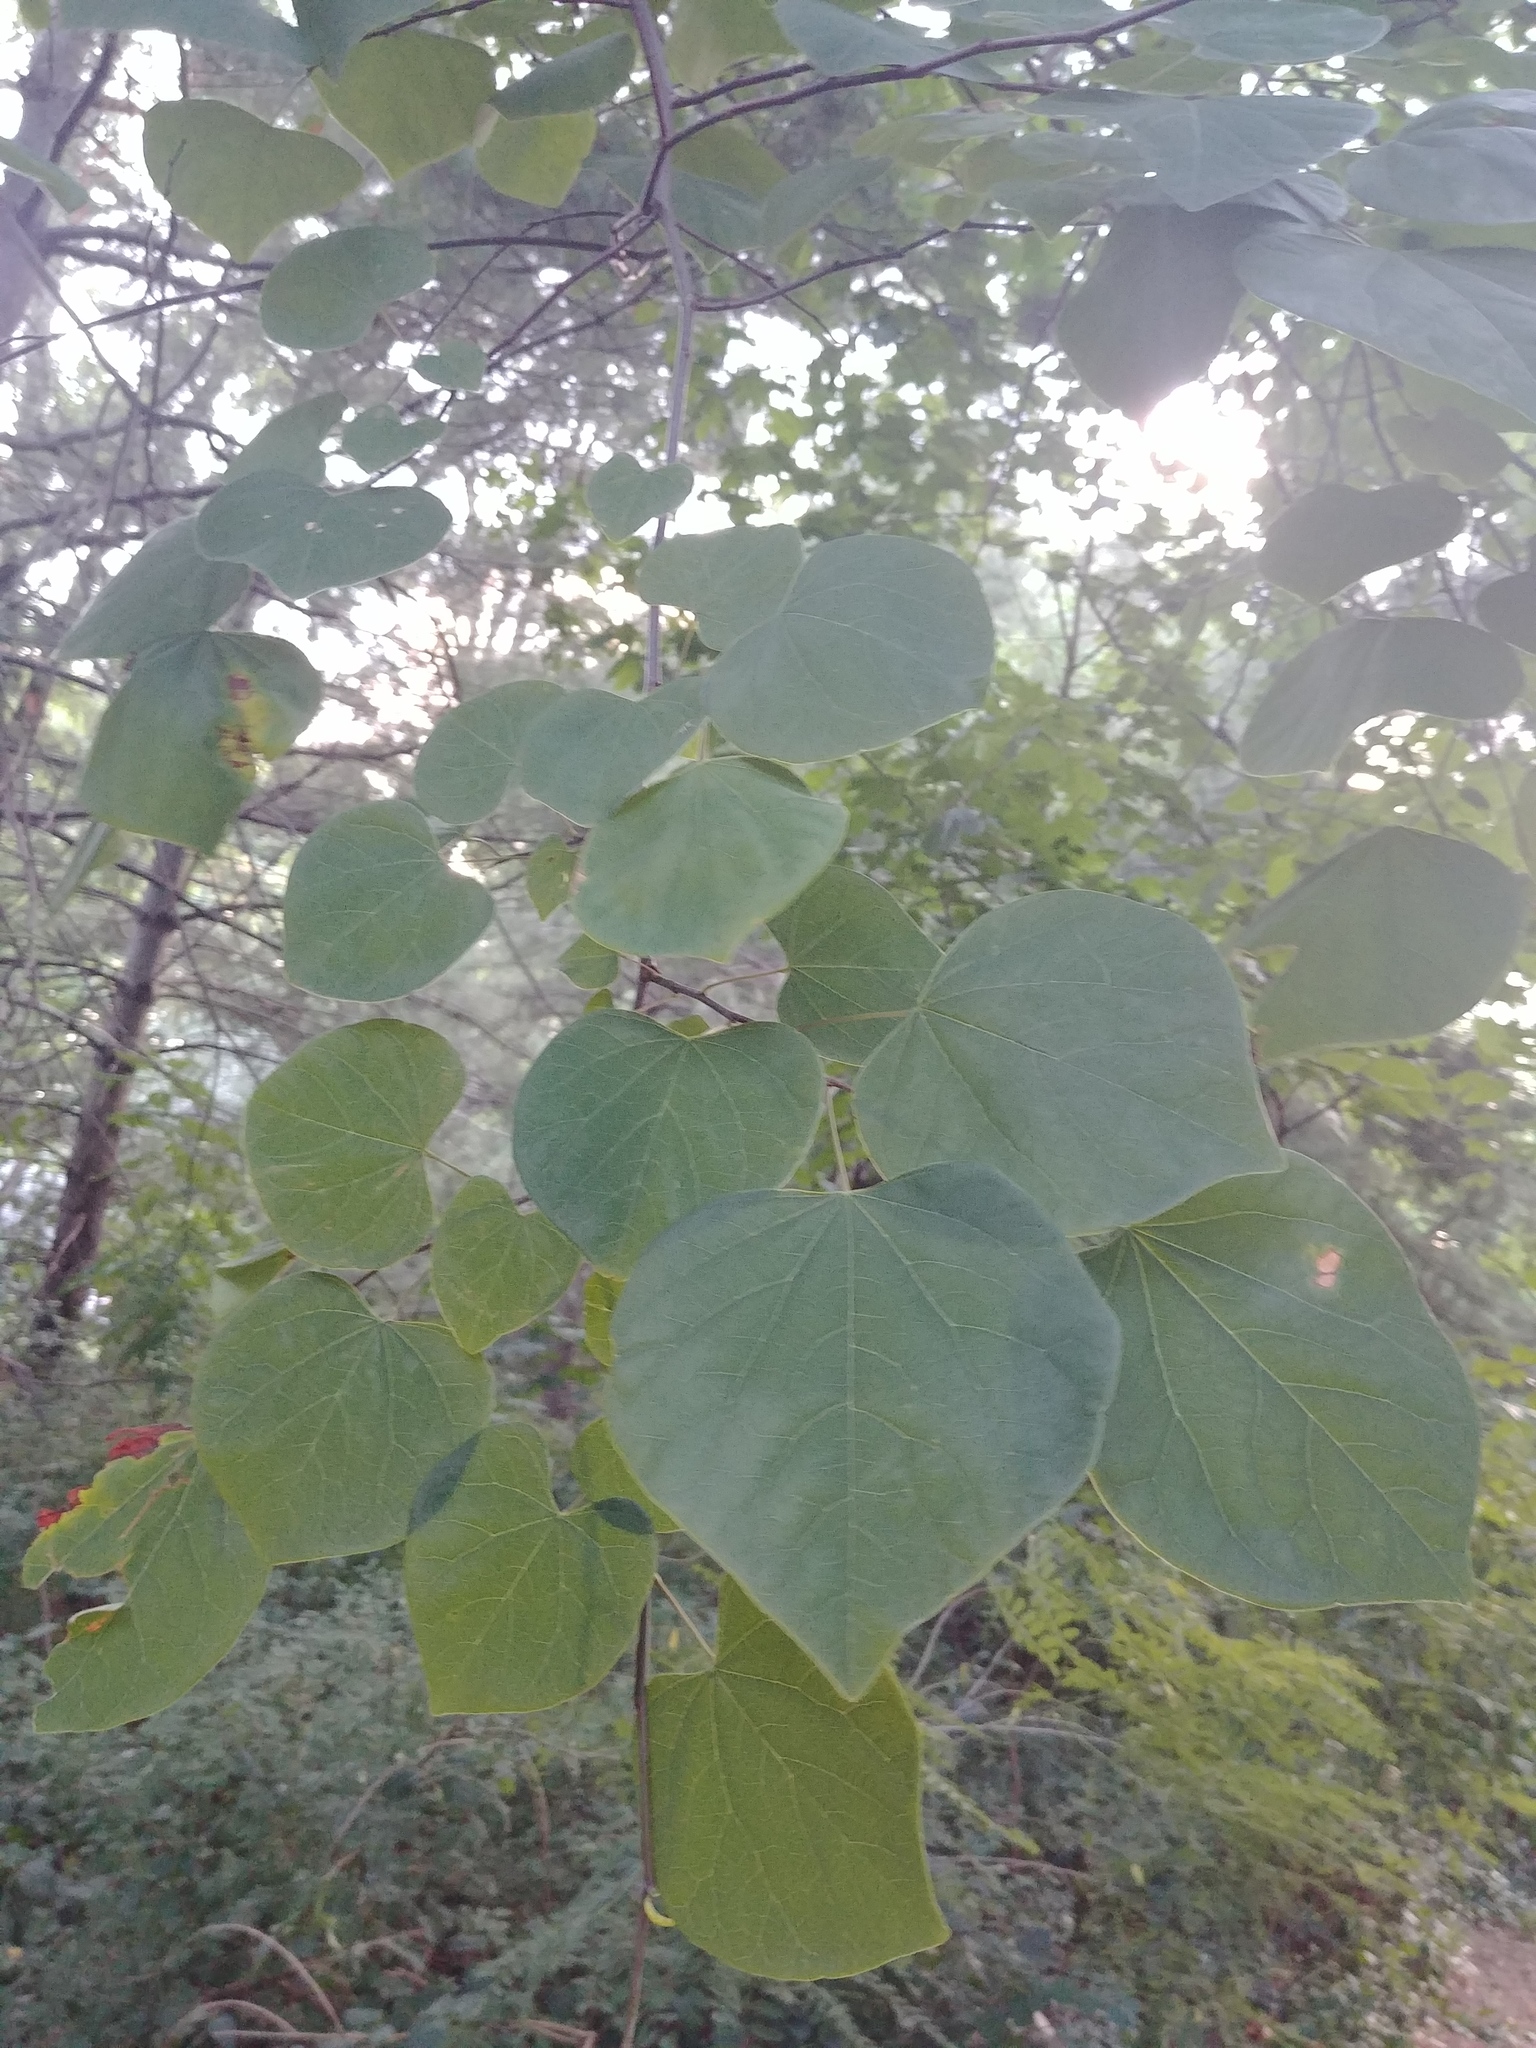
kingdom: Plantae
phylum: Tracheophyta
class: Magnoliopsida
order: Fabales
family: Fabaceae
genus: Cercis
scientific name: Cercis canadensis
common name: Eastern redbud
